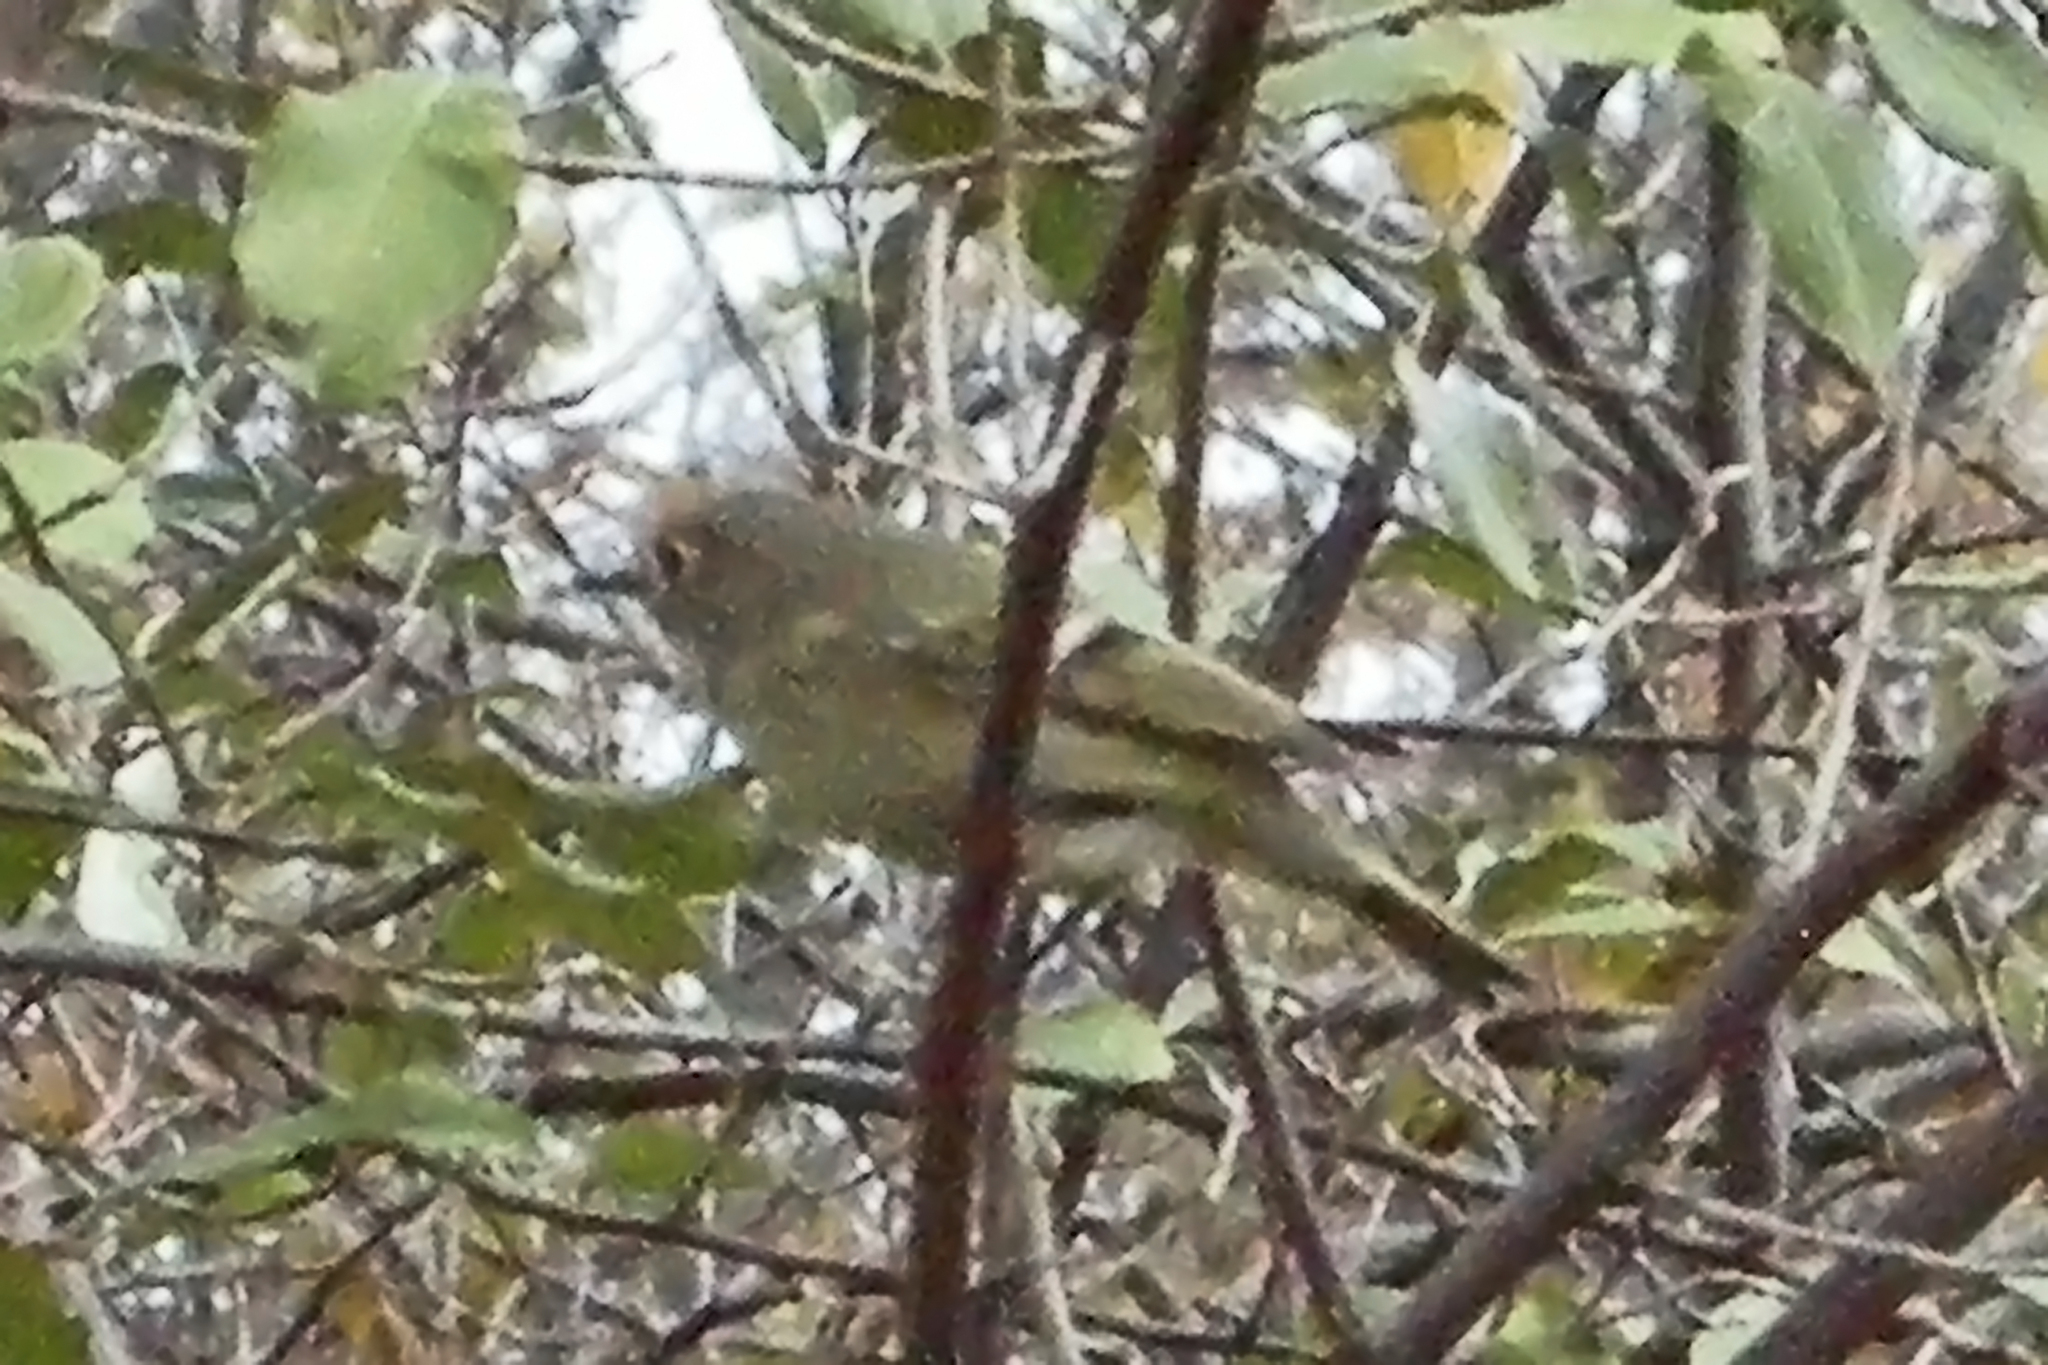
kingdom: Animalia
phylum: Chordata
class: Aves
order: Passeriformes
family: Regulidae
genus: Regulus
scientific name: Regulus calendula
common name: Ruby-crowned kinglet
